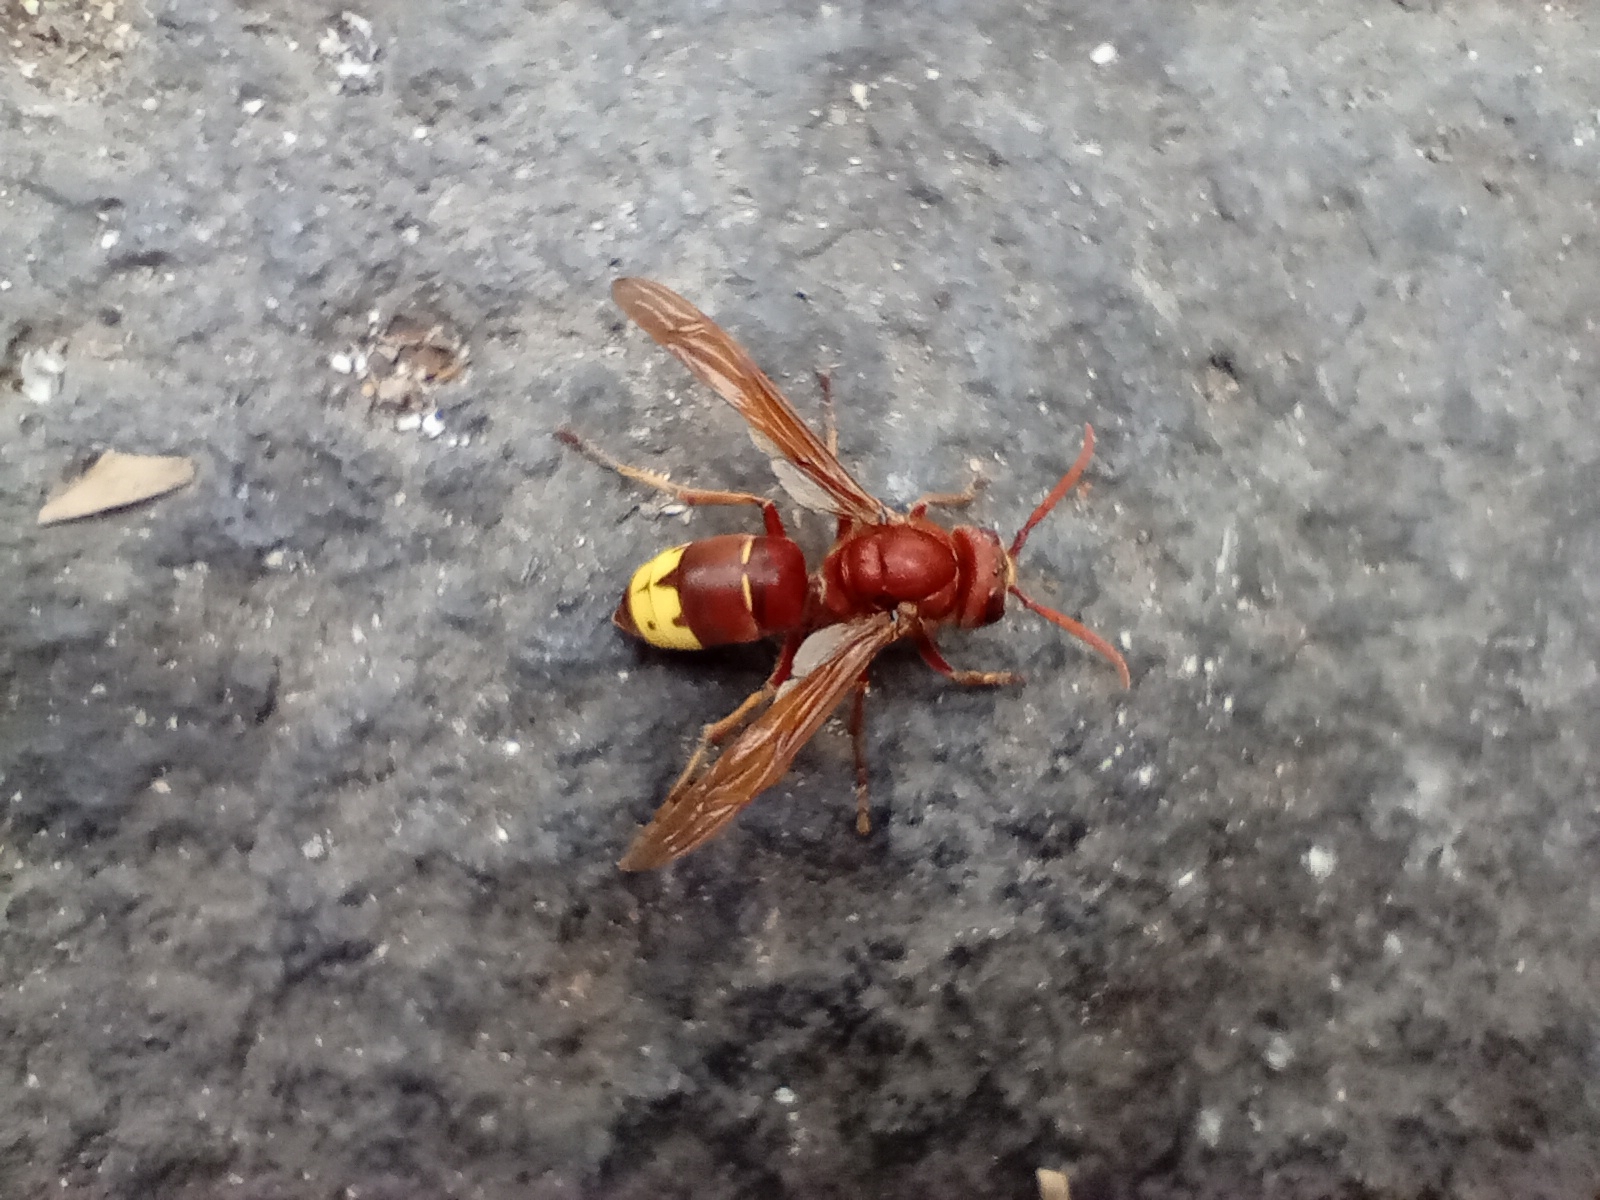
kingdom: Animalia
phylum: Arthropoda
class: Insecta
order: Hymenoptera
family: Vespidae
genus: Vespa
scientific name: Vespa orientalis
